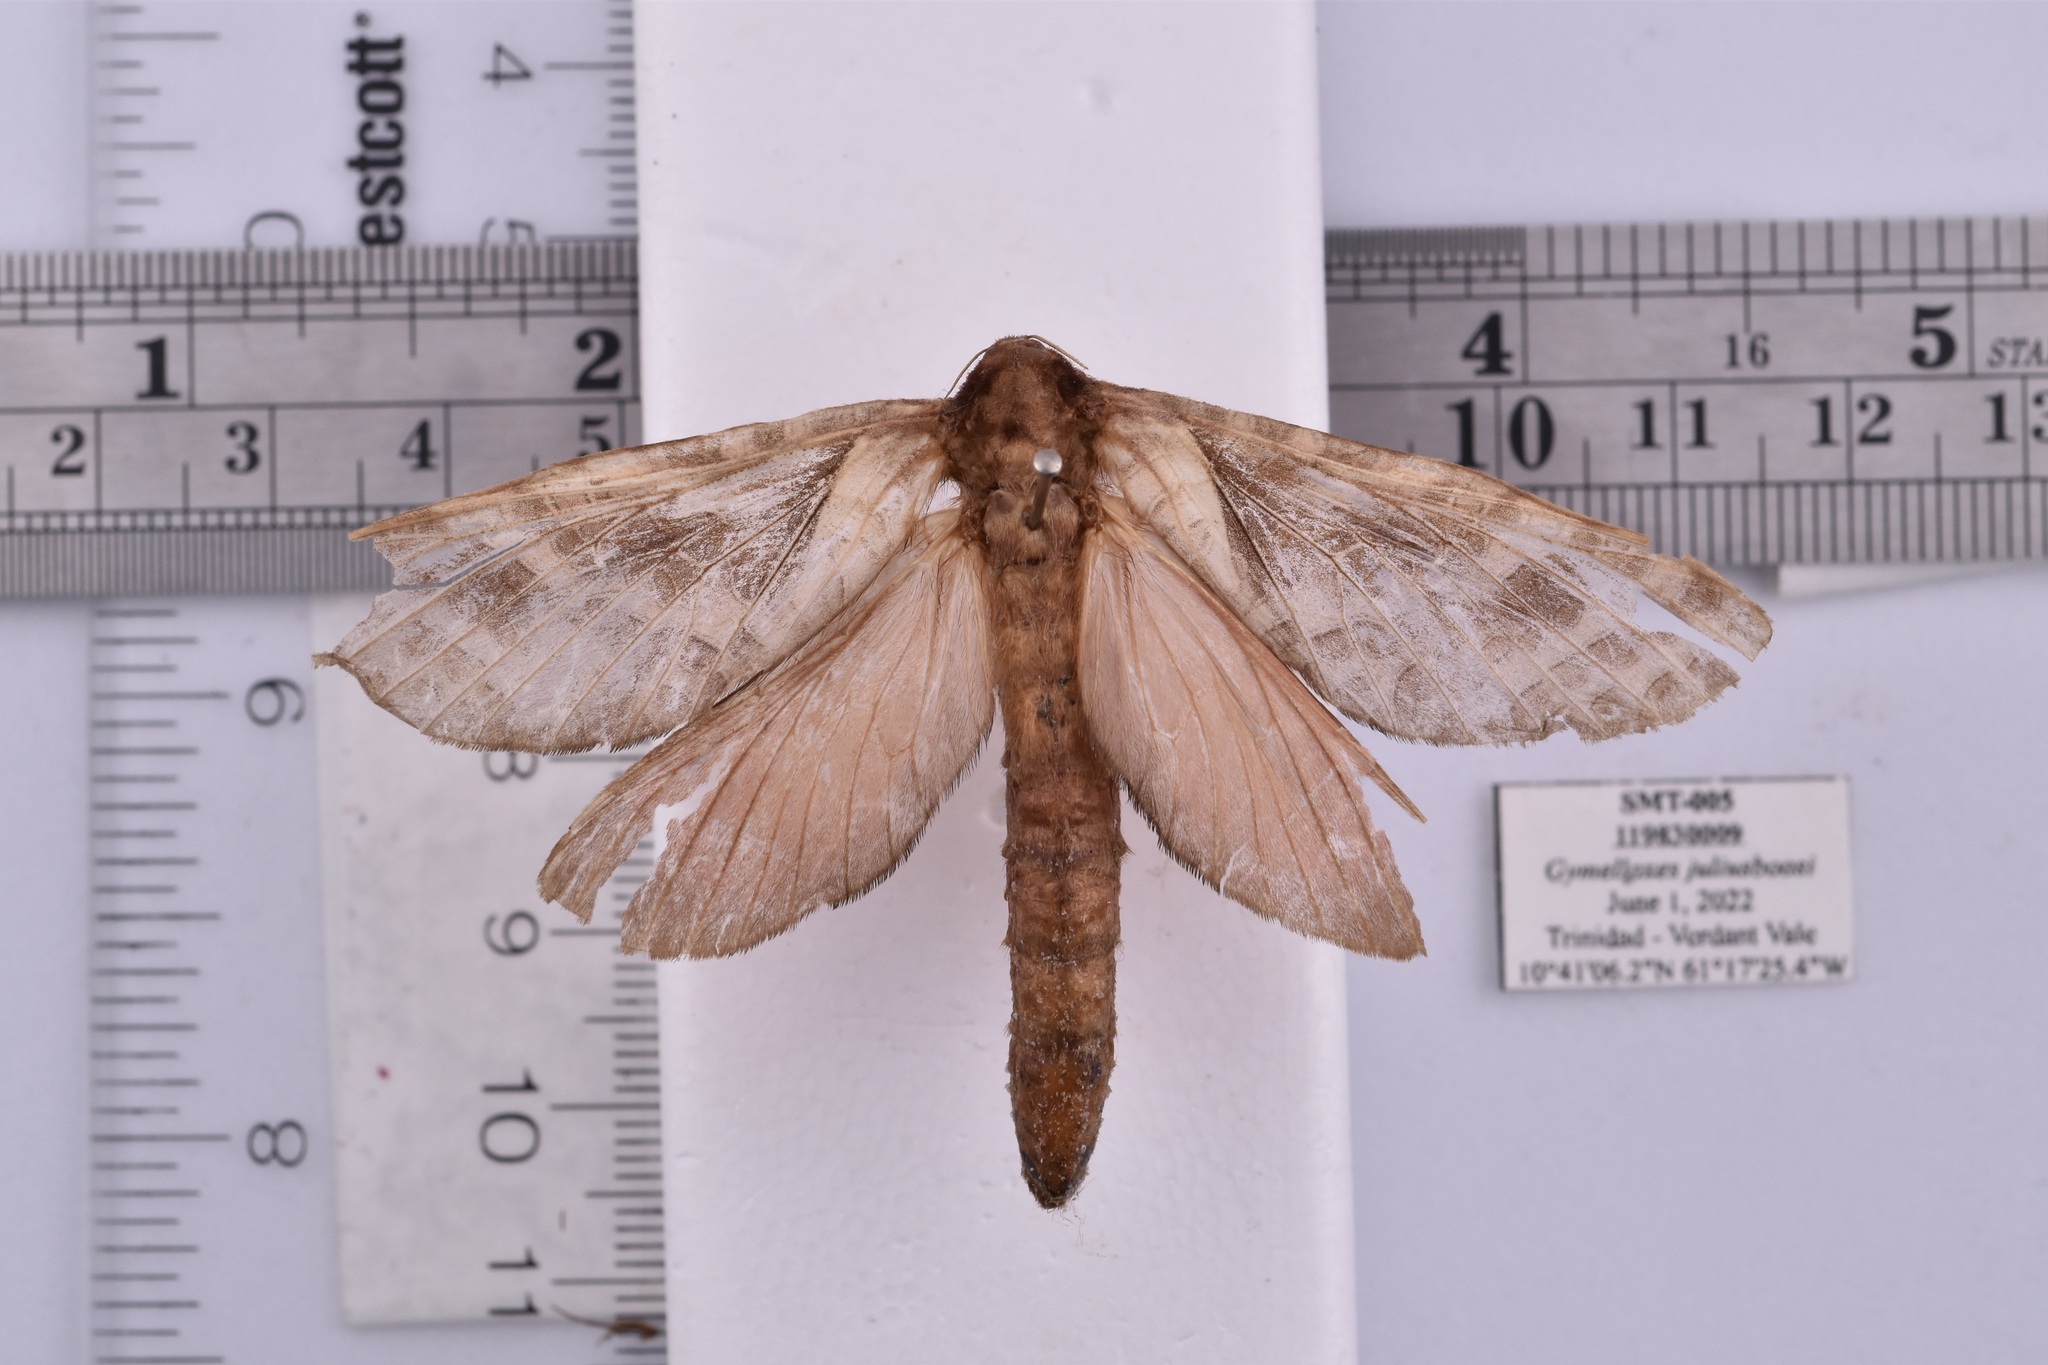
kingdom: Animalia
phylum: Arthropoda
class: Insecta
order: Lepidoptera
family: Hepialidae
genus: Gymelloxes
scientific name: Gymelloxes juliusboosi
